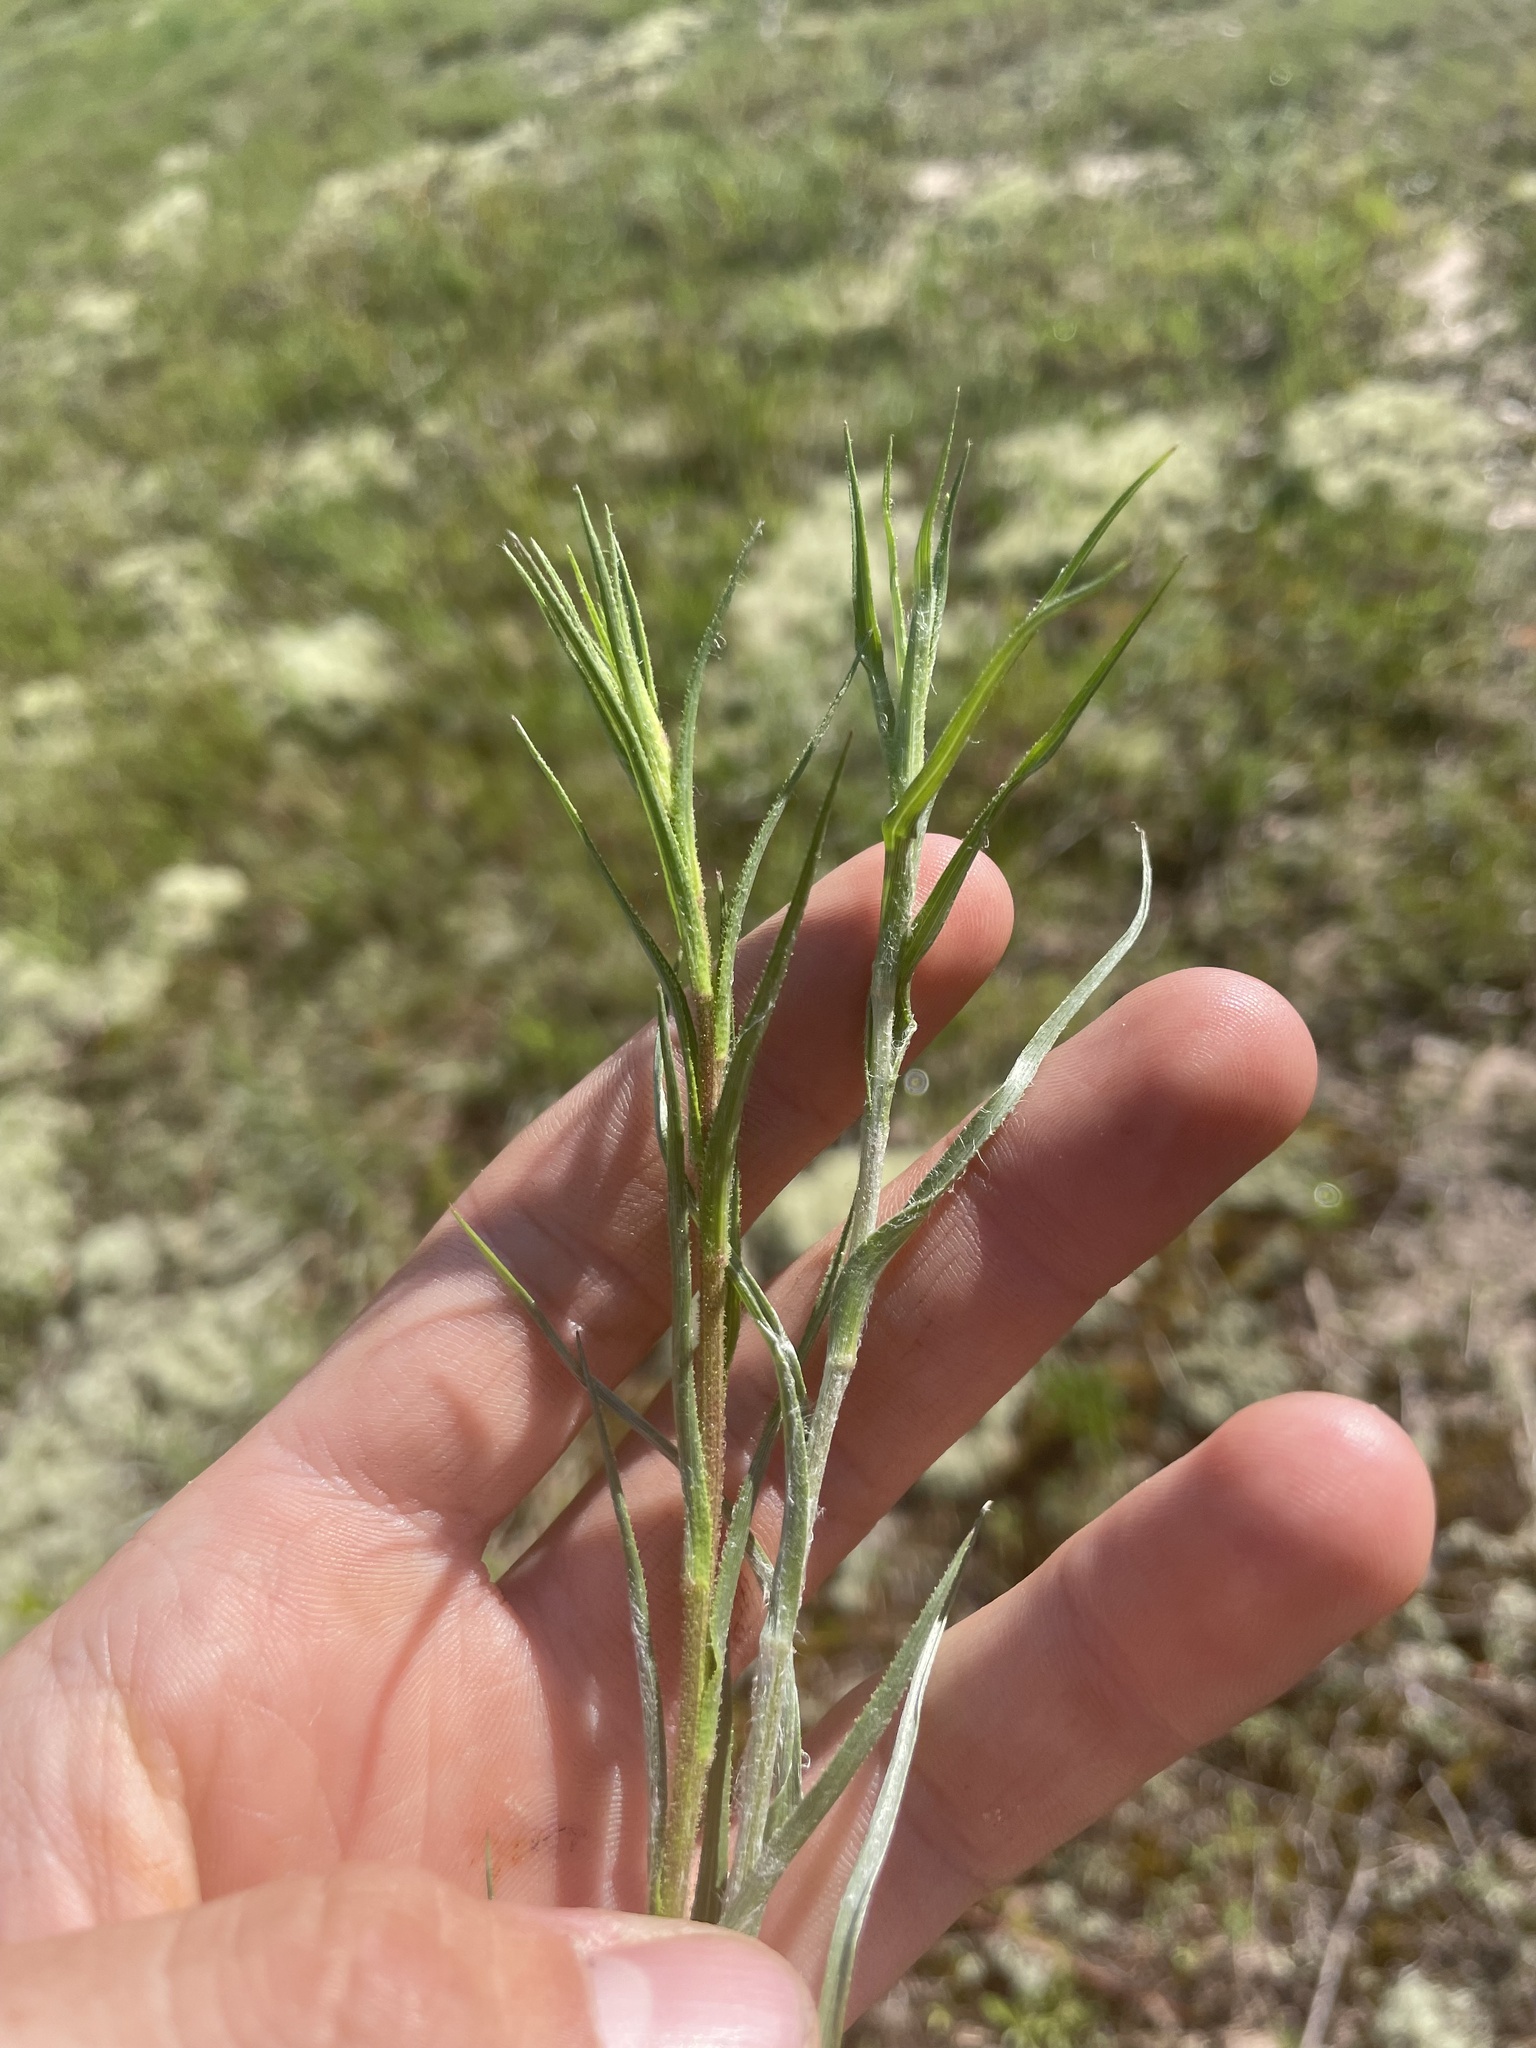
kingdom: Plantae
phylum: Tracheophyta
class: Magnoliopsida
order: Asterales
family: Asteraceae
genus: Pityopsis
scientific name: Pityopsis aspera
